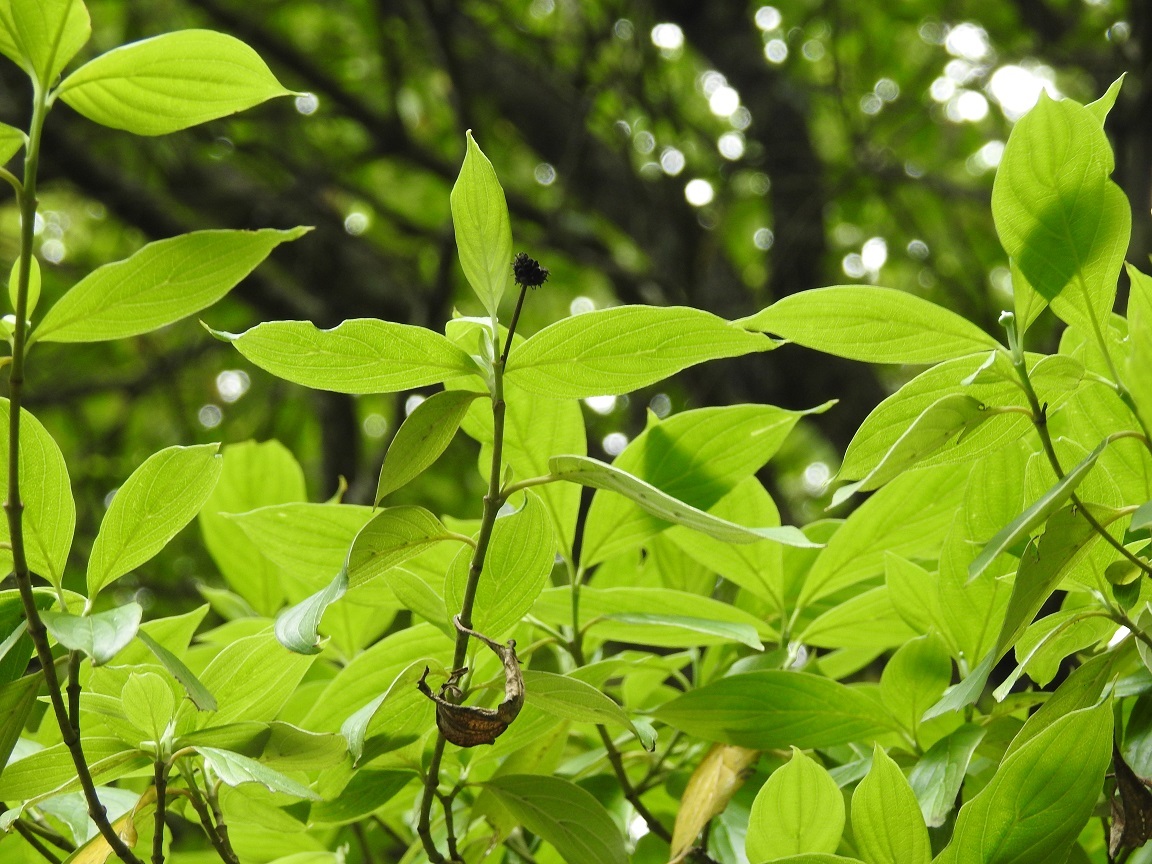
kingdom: Plantae
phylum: Tracheophyta
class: Magnoliopsida
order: Cornales
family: Cornaceae
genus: Cornus
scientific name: Cornus disciflora
